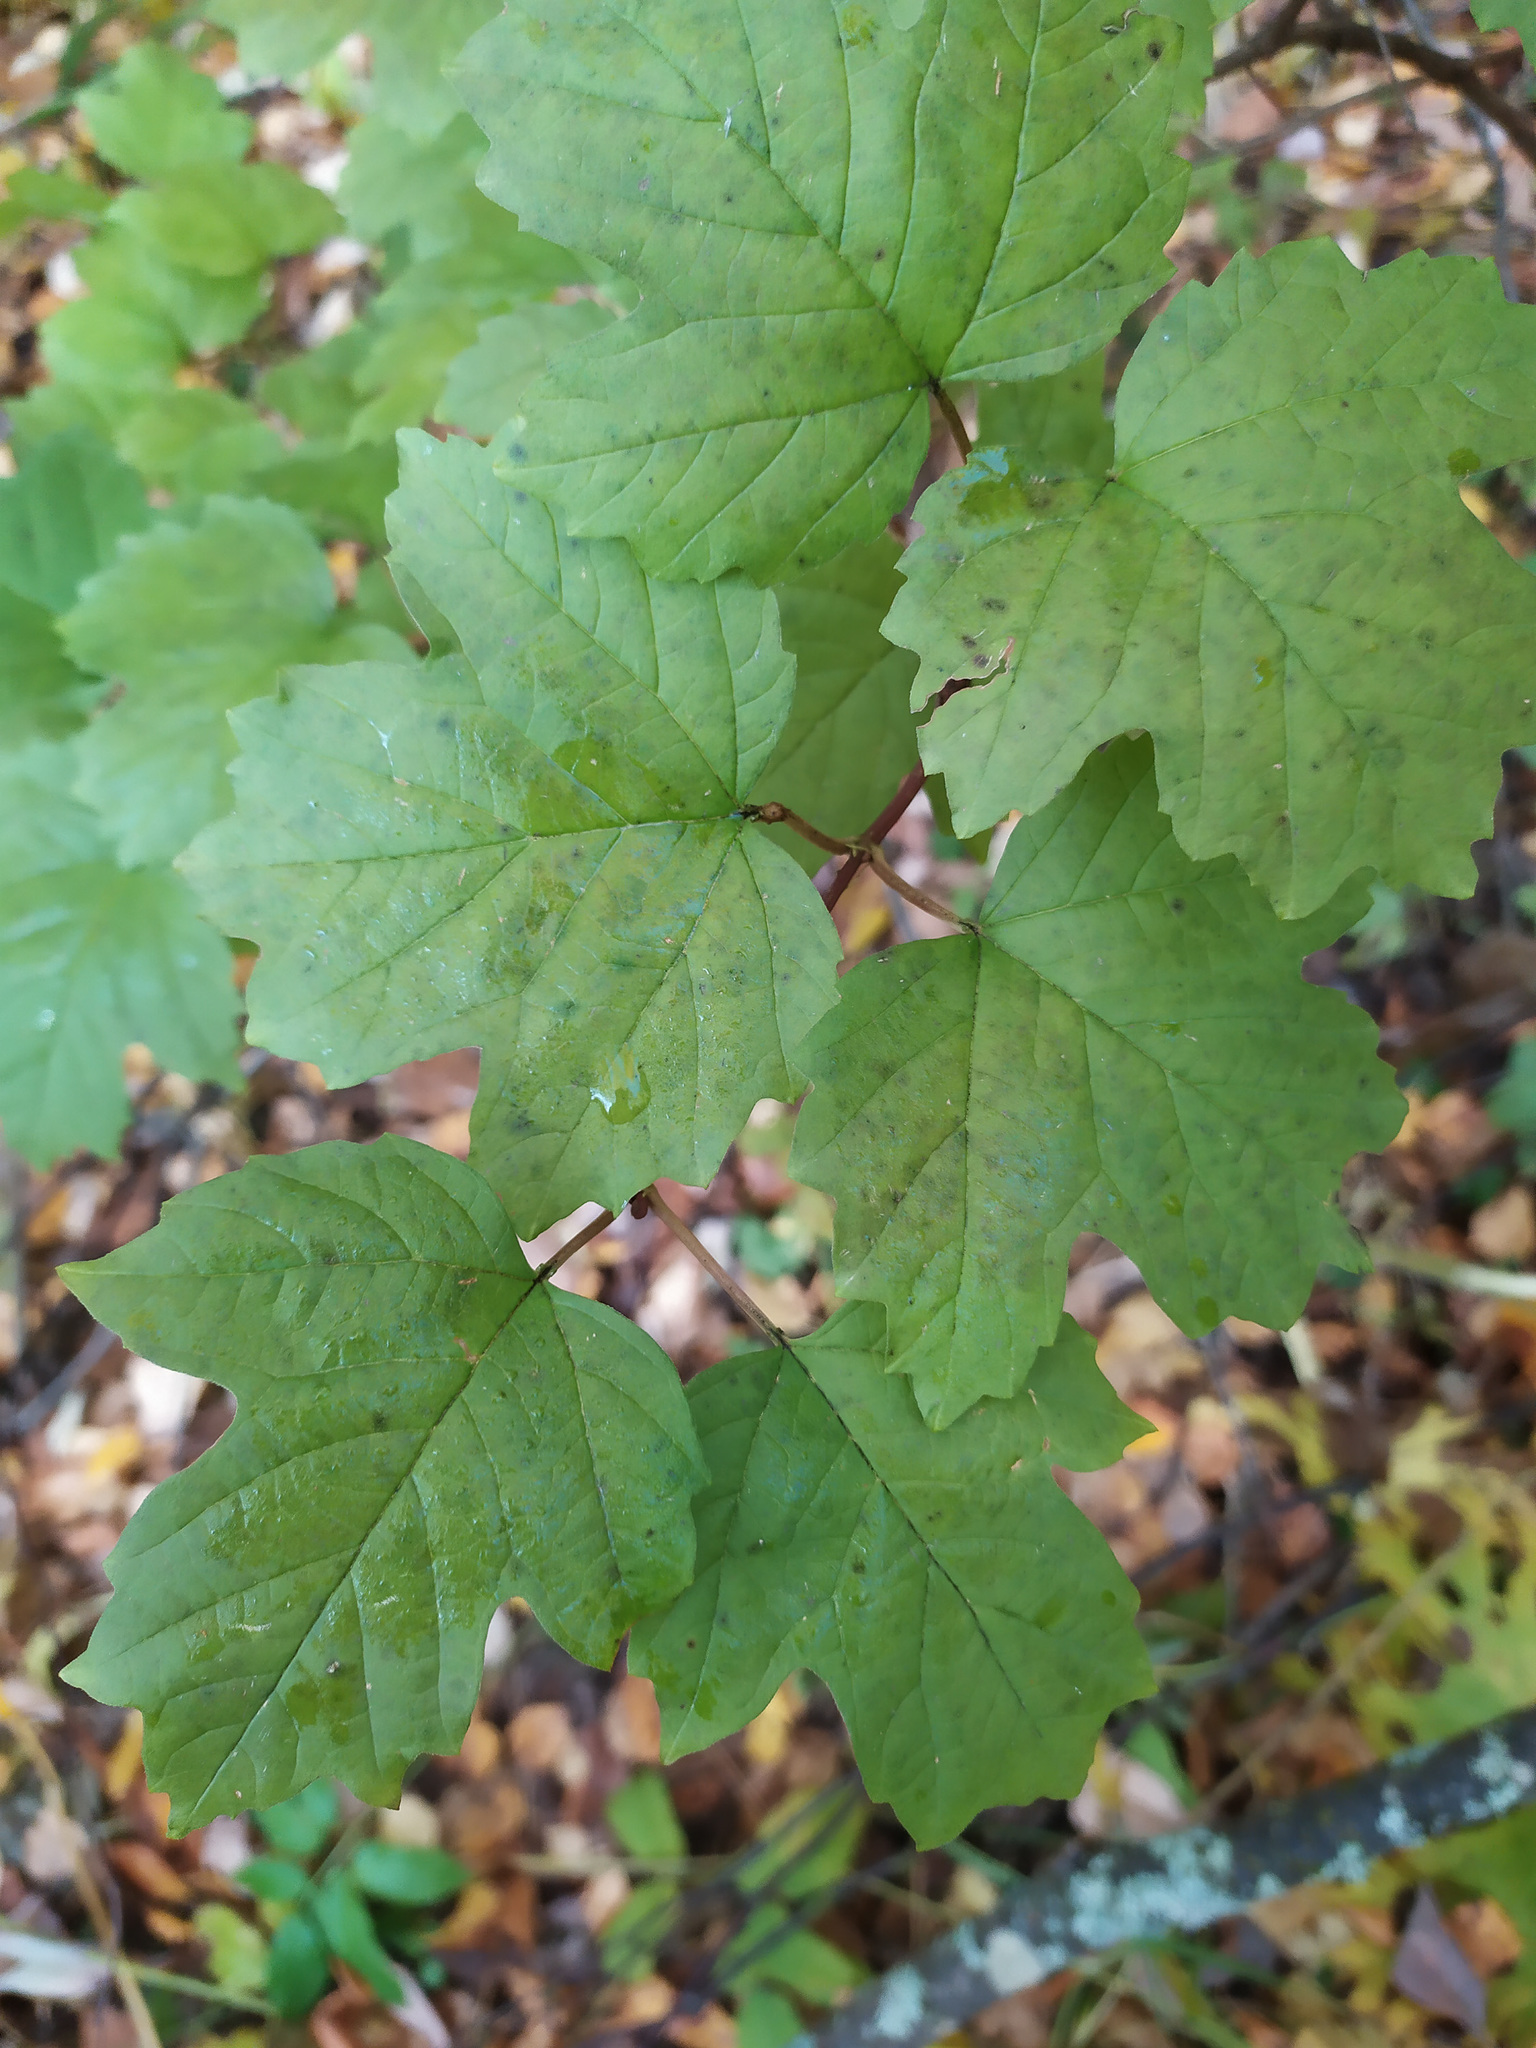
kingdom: Plantae
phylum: Tracheophyta
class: Magnoliopsida
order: Dipsacales
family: Viburnaceae
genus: Viburnum
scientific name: Viburnum opulus
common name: Guelder-rose
